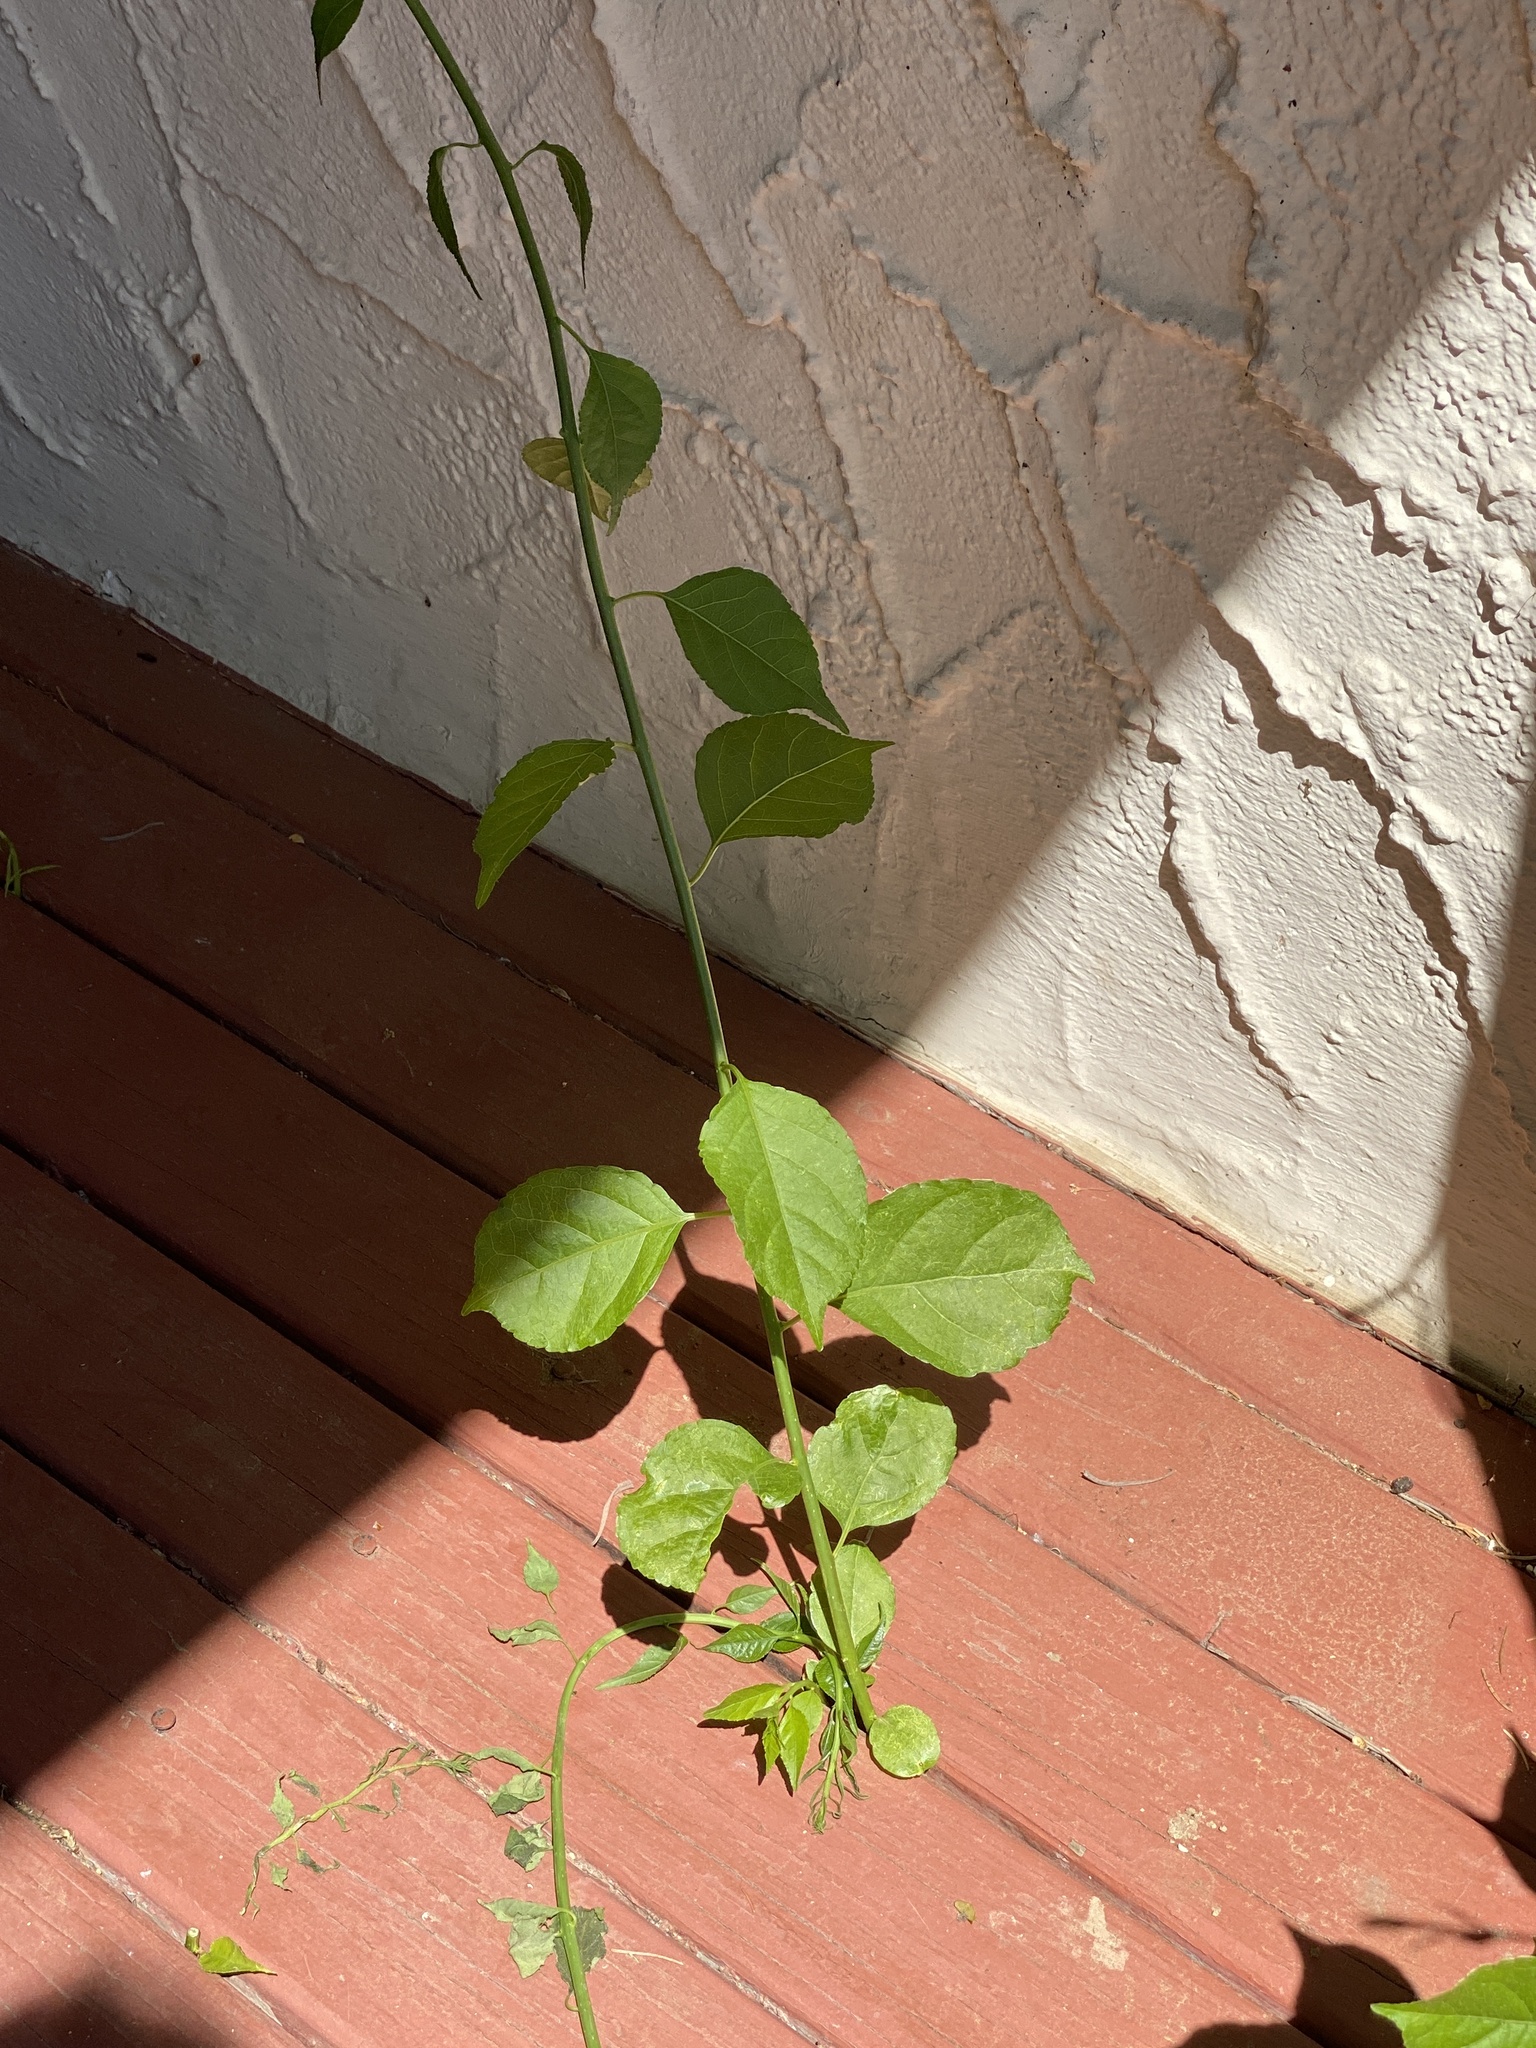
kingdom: Plantae
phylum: Tracheophyta
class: Magnoliopsida
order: Celastrales
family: Celastraceae
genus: Celastrus
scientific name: Celastrus orbiculatus
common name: Oriental bittersweet
